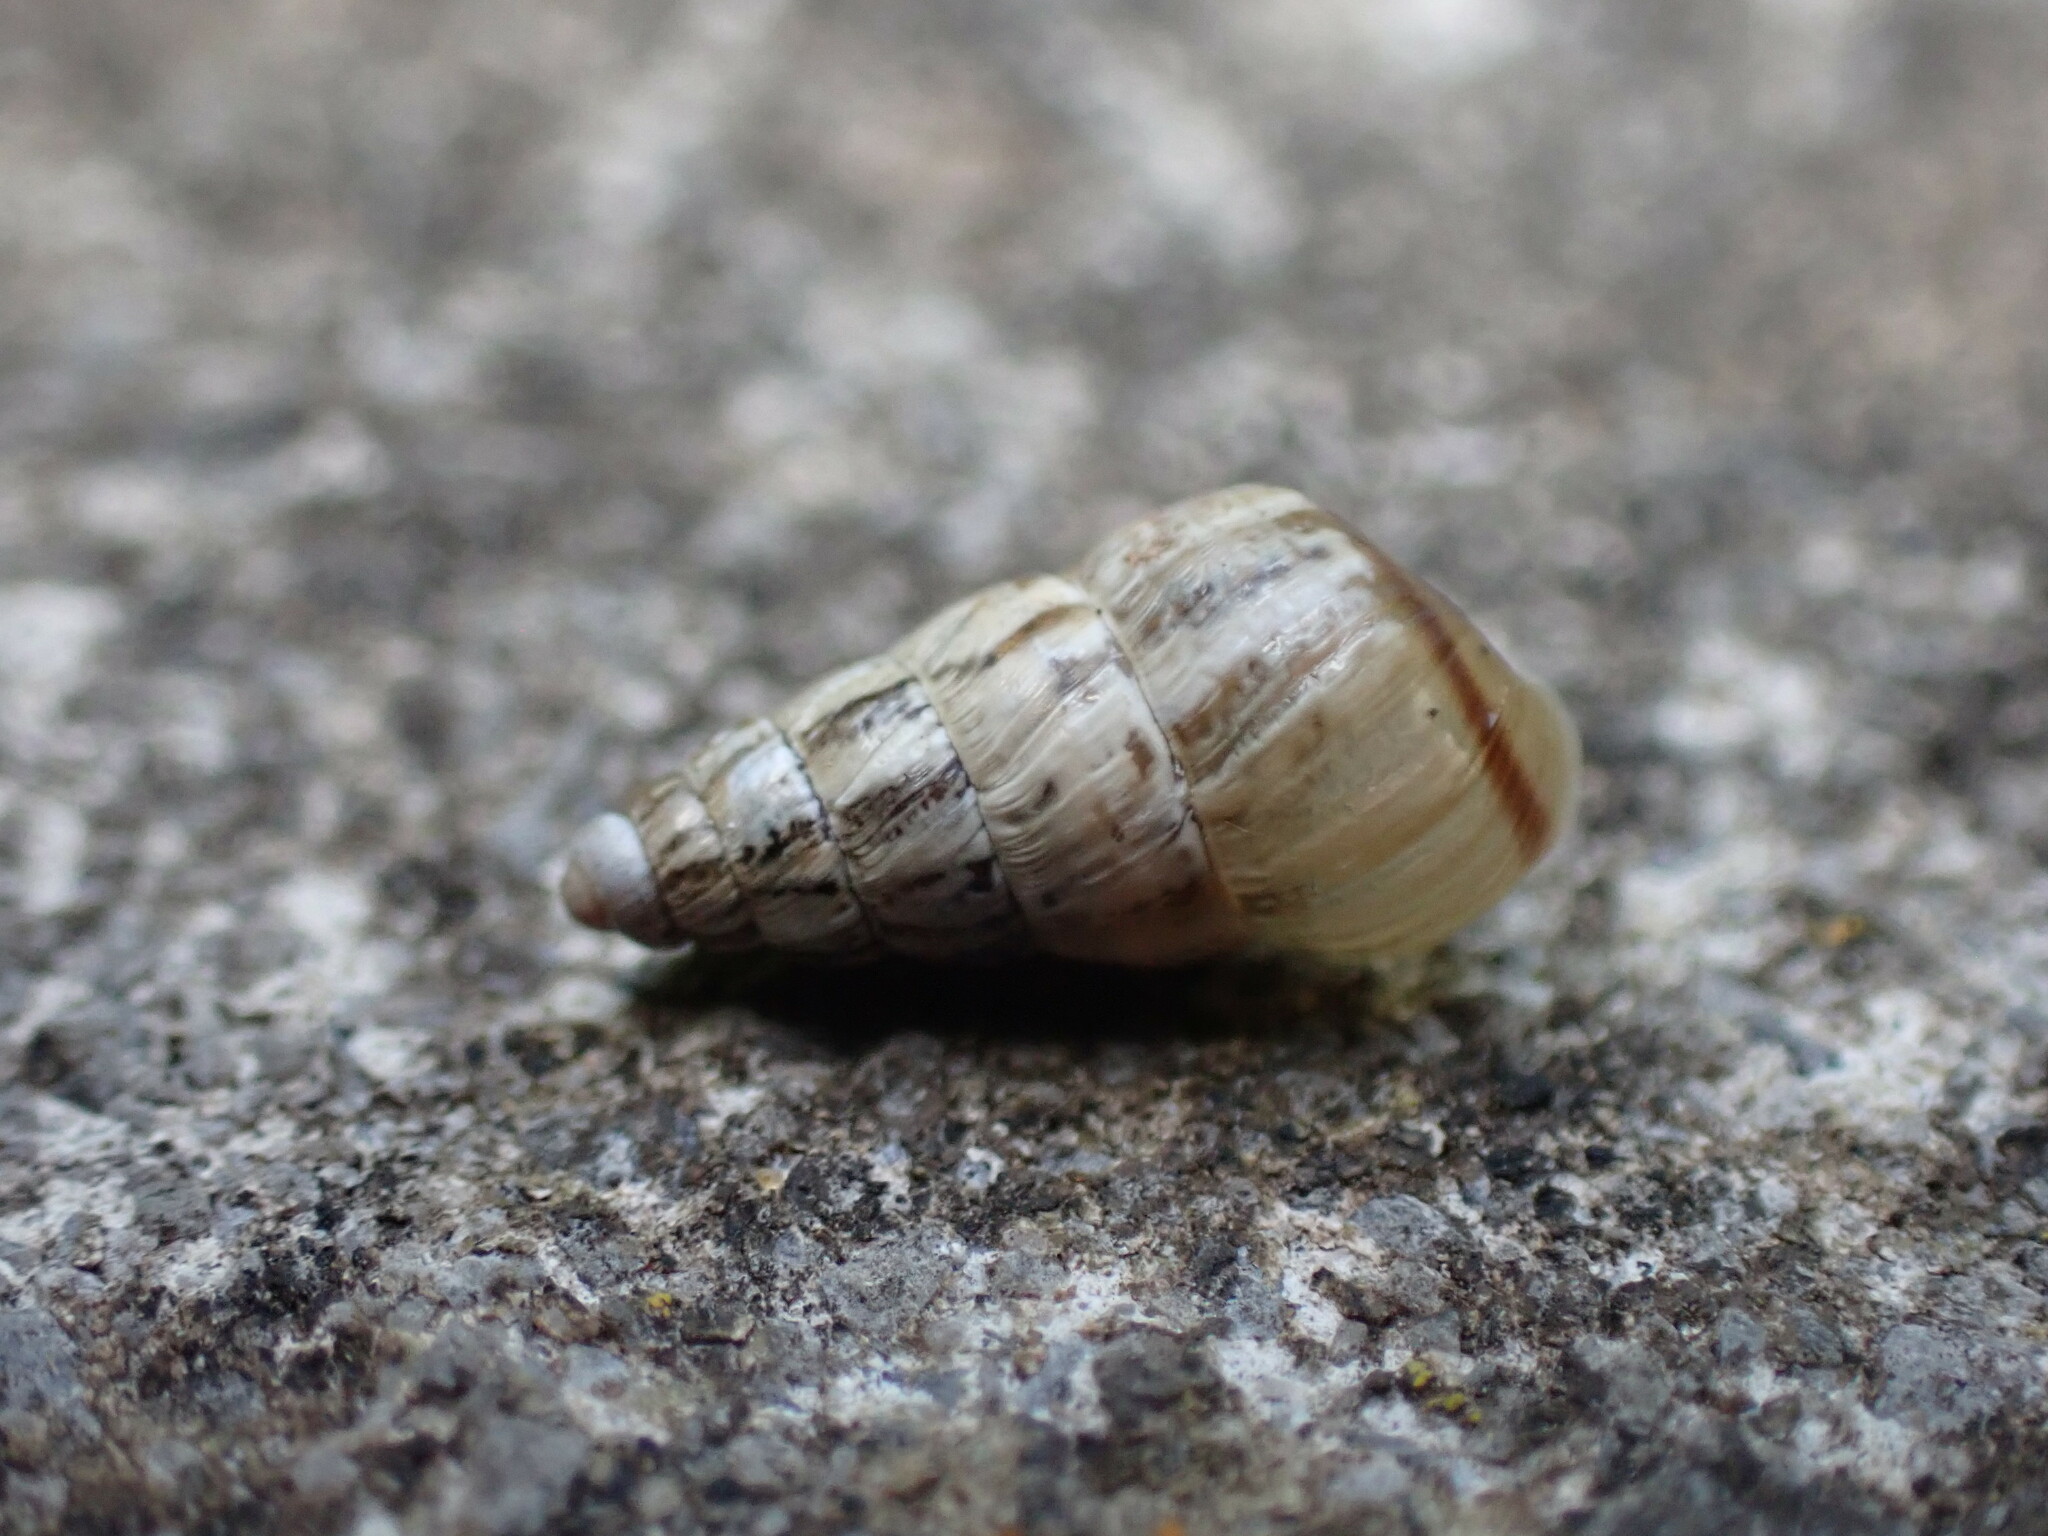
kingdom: Animalia
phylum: Mollusca
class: Gastropoda
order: Stylommatophora
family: Geomitridae
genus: Cochlicella
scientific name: Cochlicella acuta
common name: Pointed snail
